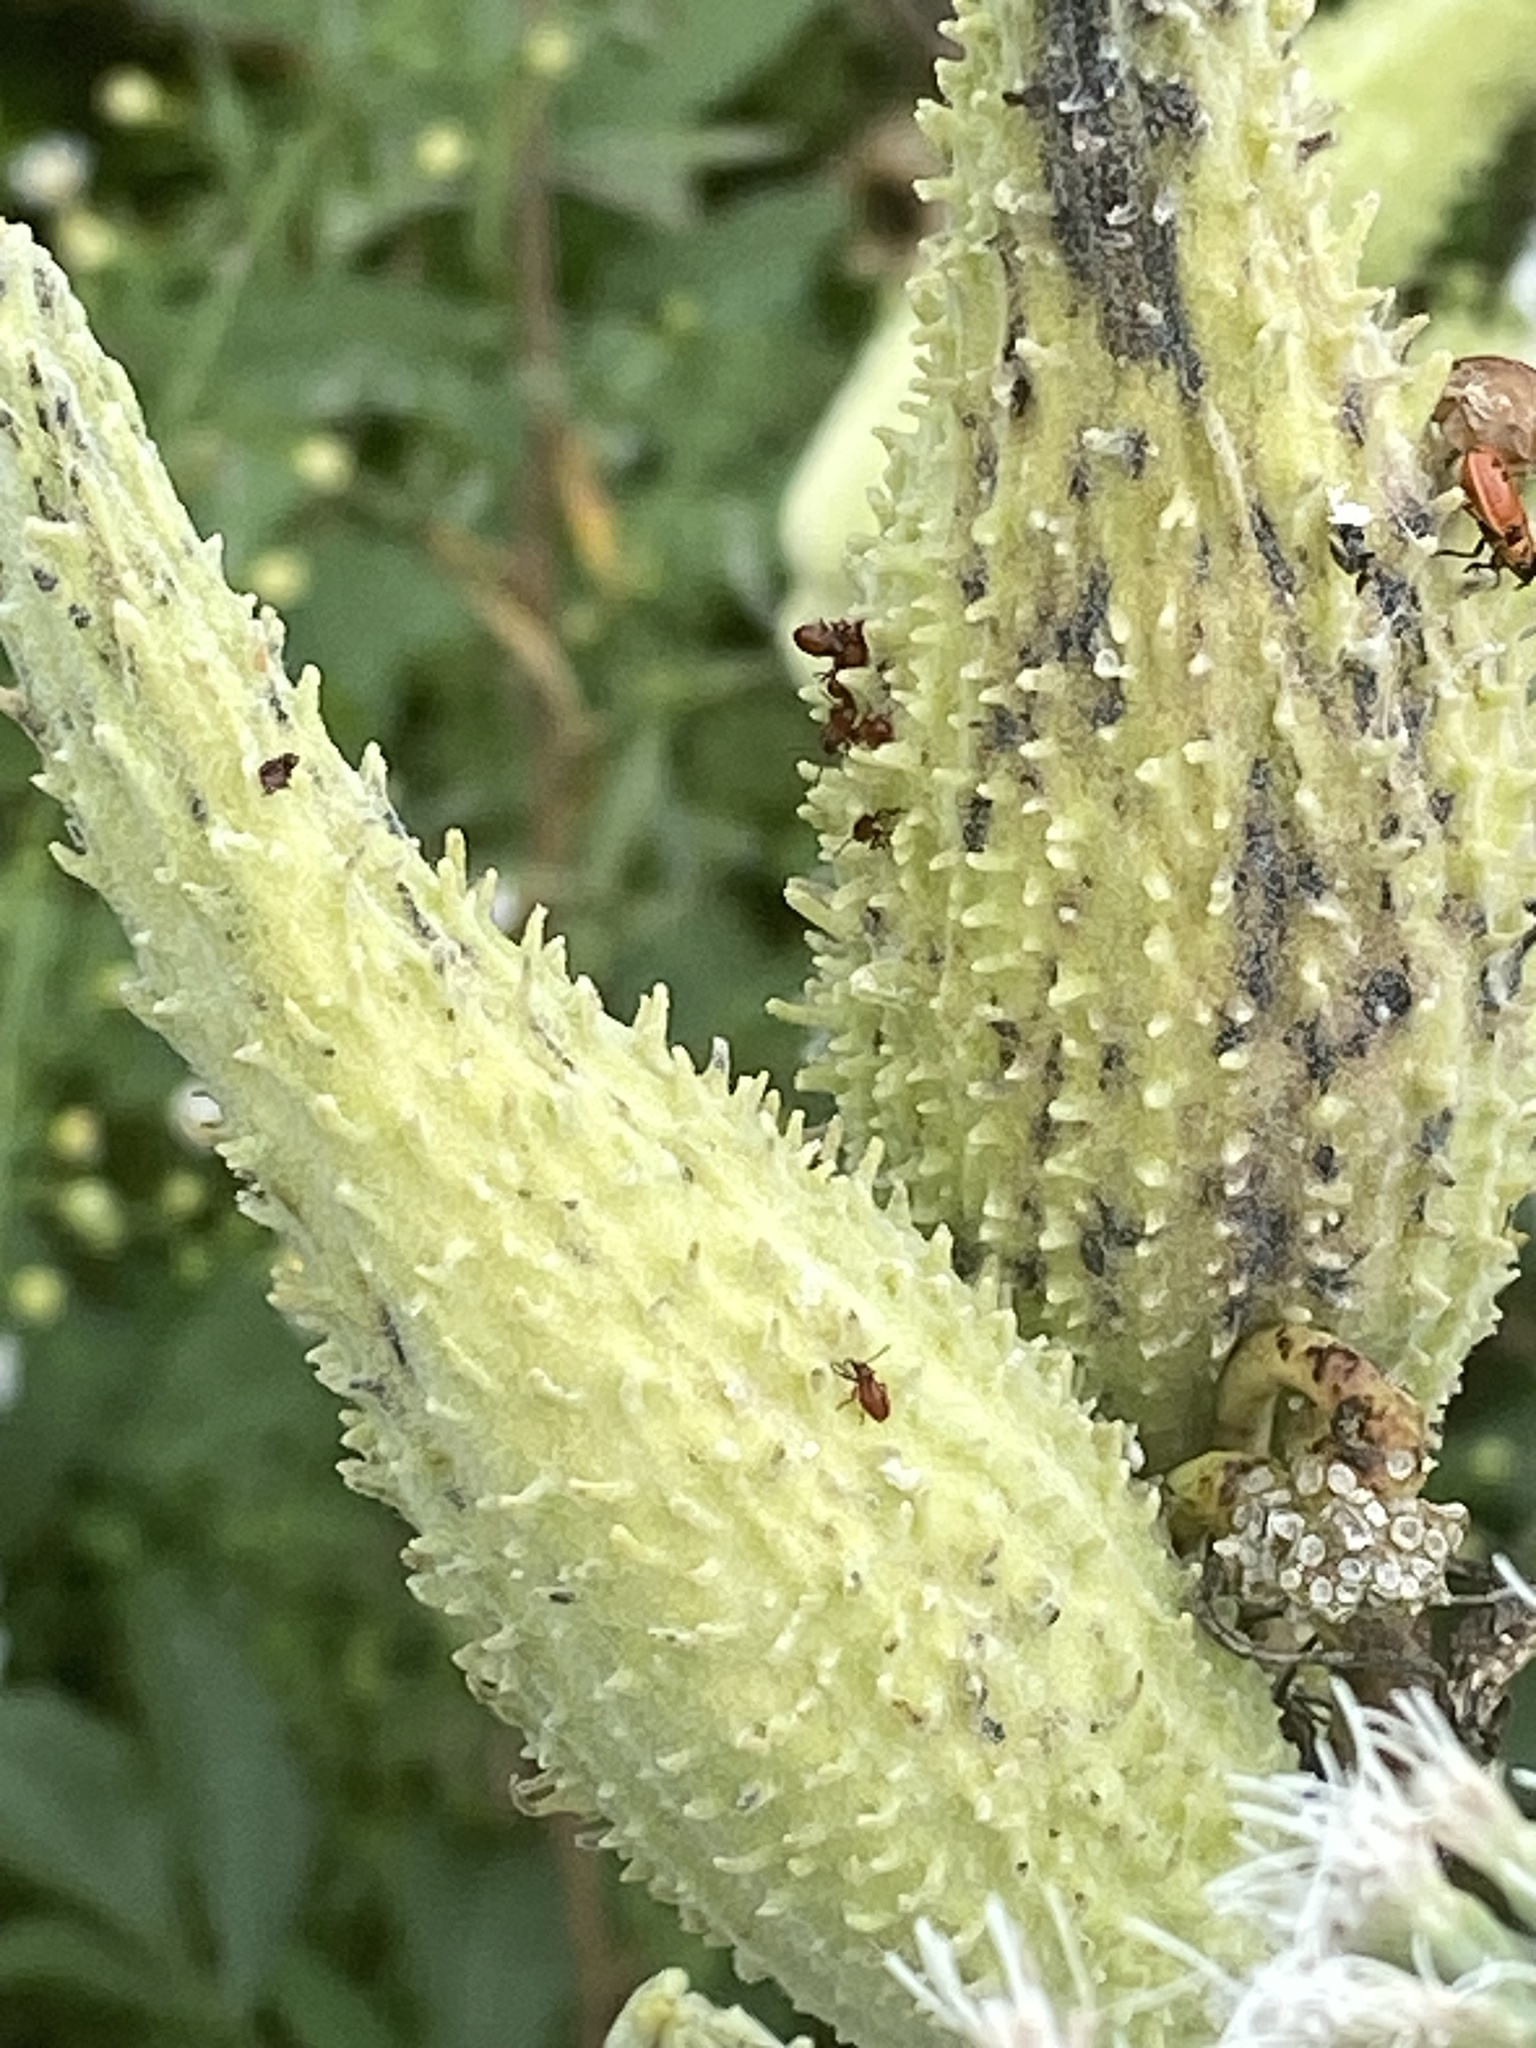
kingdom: Plantae
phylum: Tracheophyta
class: Magnoliopsida
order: Gentianales
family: Apocynaceae
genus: Asclepias
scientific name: Asclepias syriaca
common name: Common milkweed
